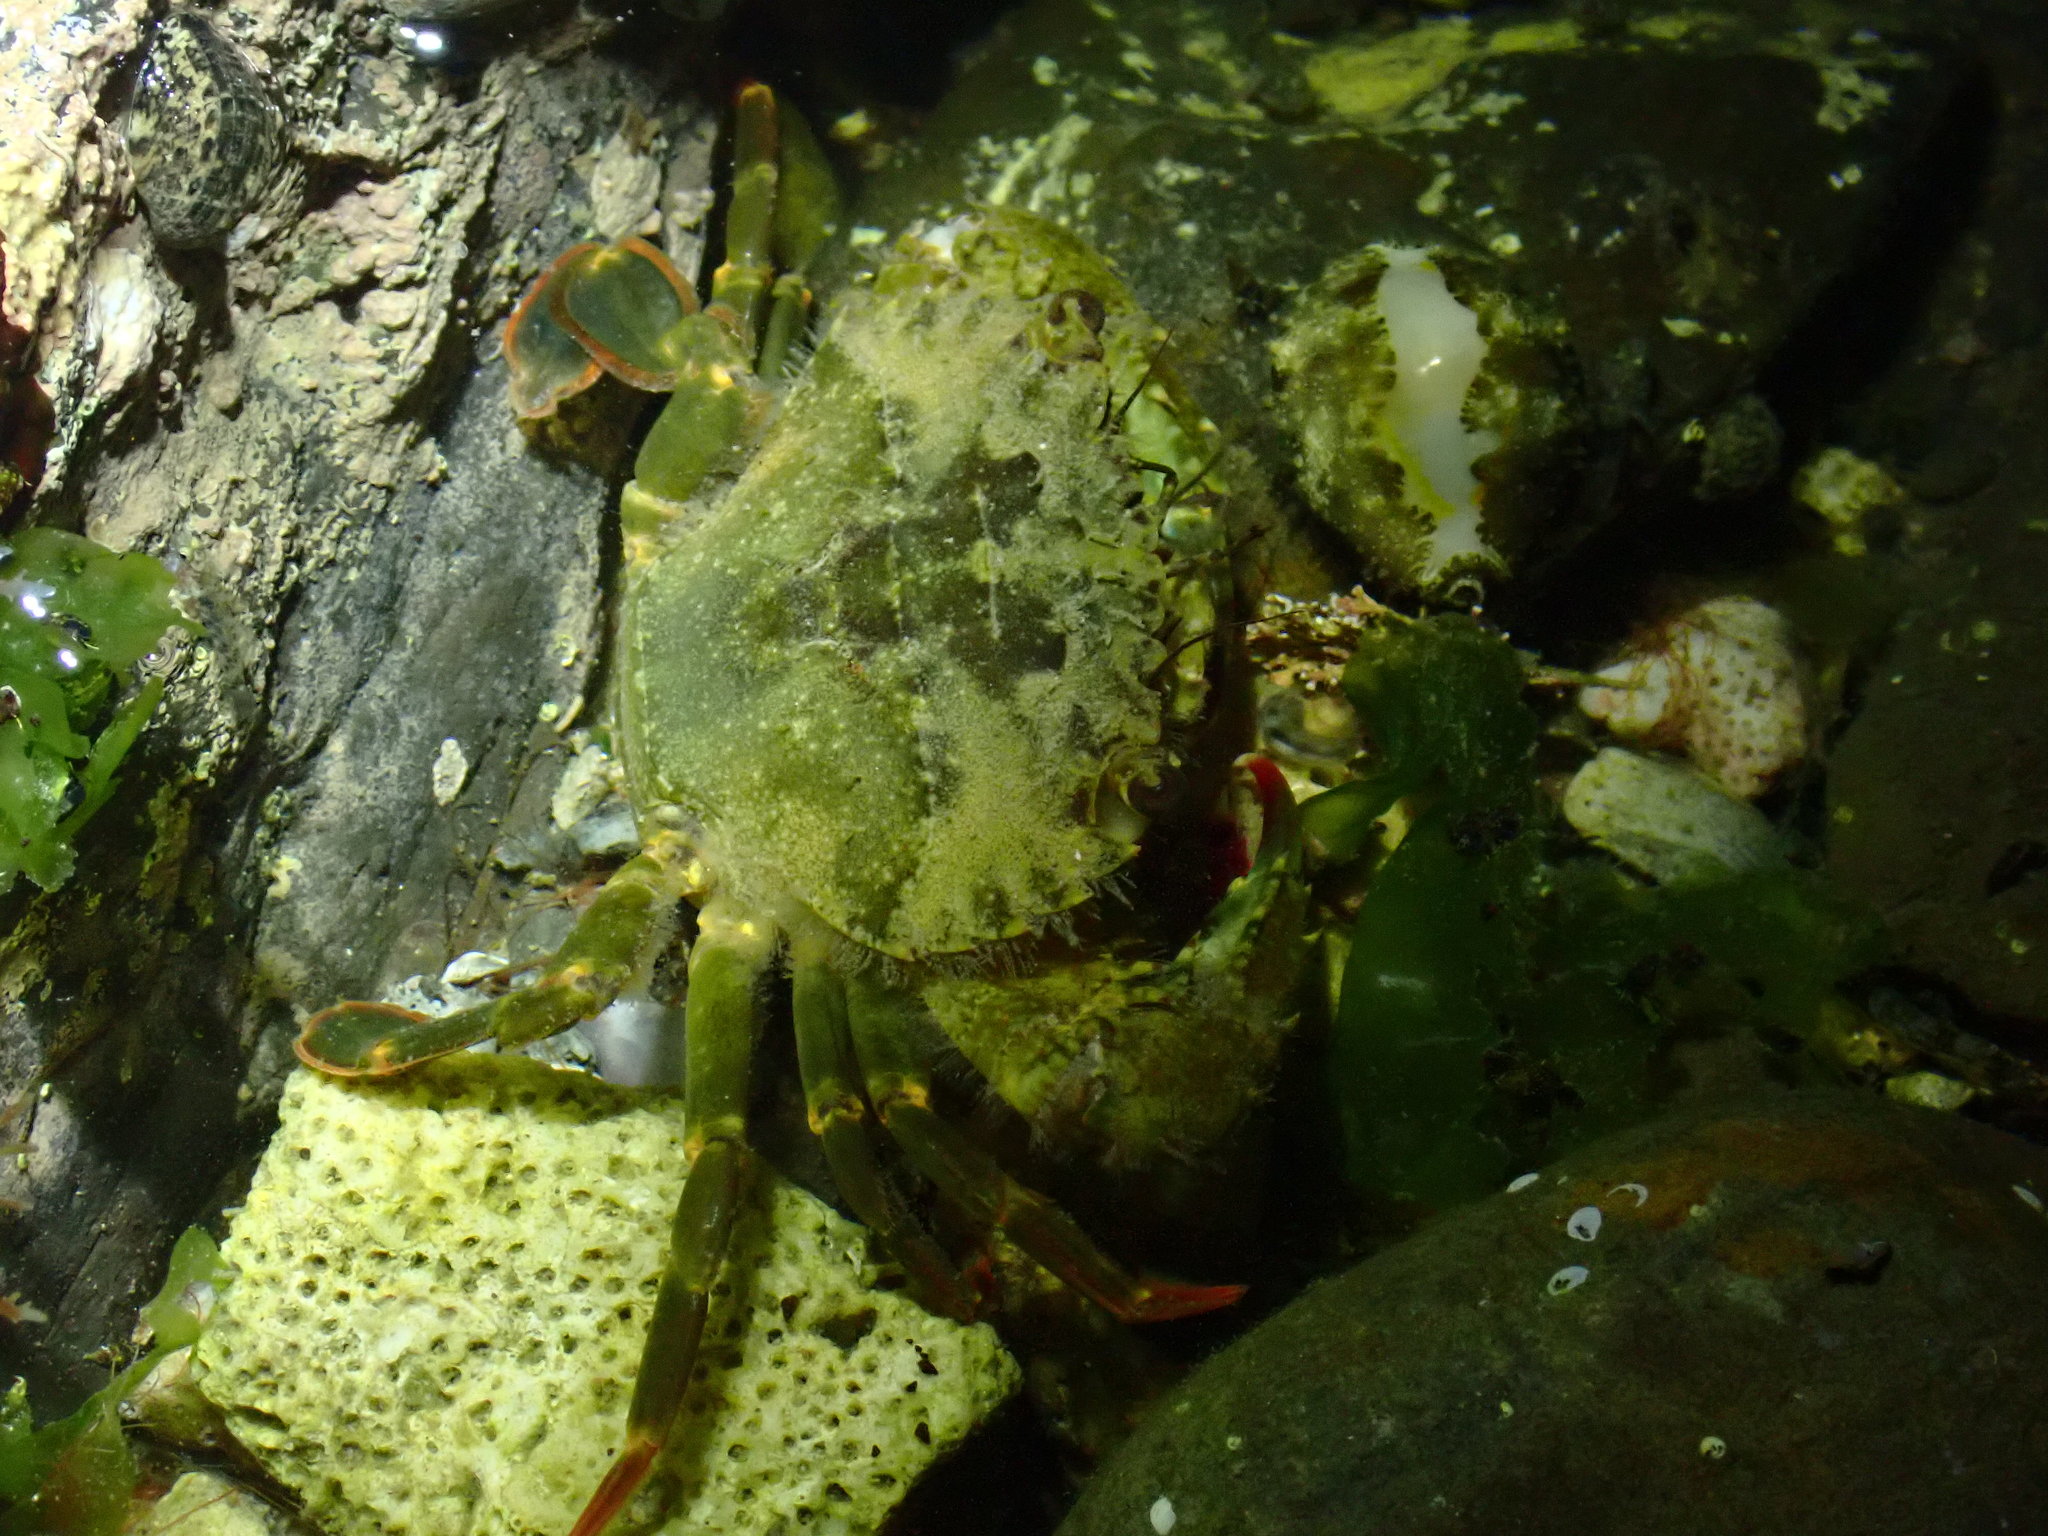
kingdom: Animalia
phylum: Arthropoda
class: Malacostraca
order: Decapoda
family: Portunidae
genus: Thalamita
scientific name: Thalamita danae
